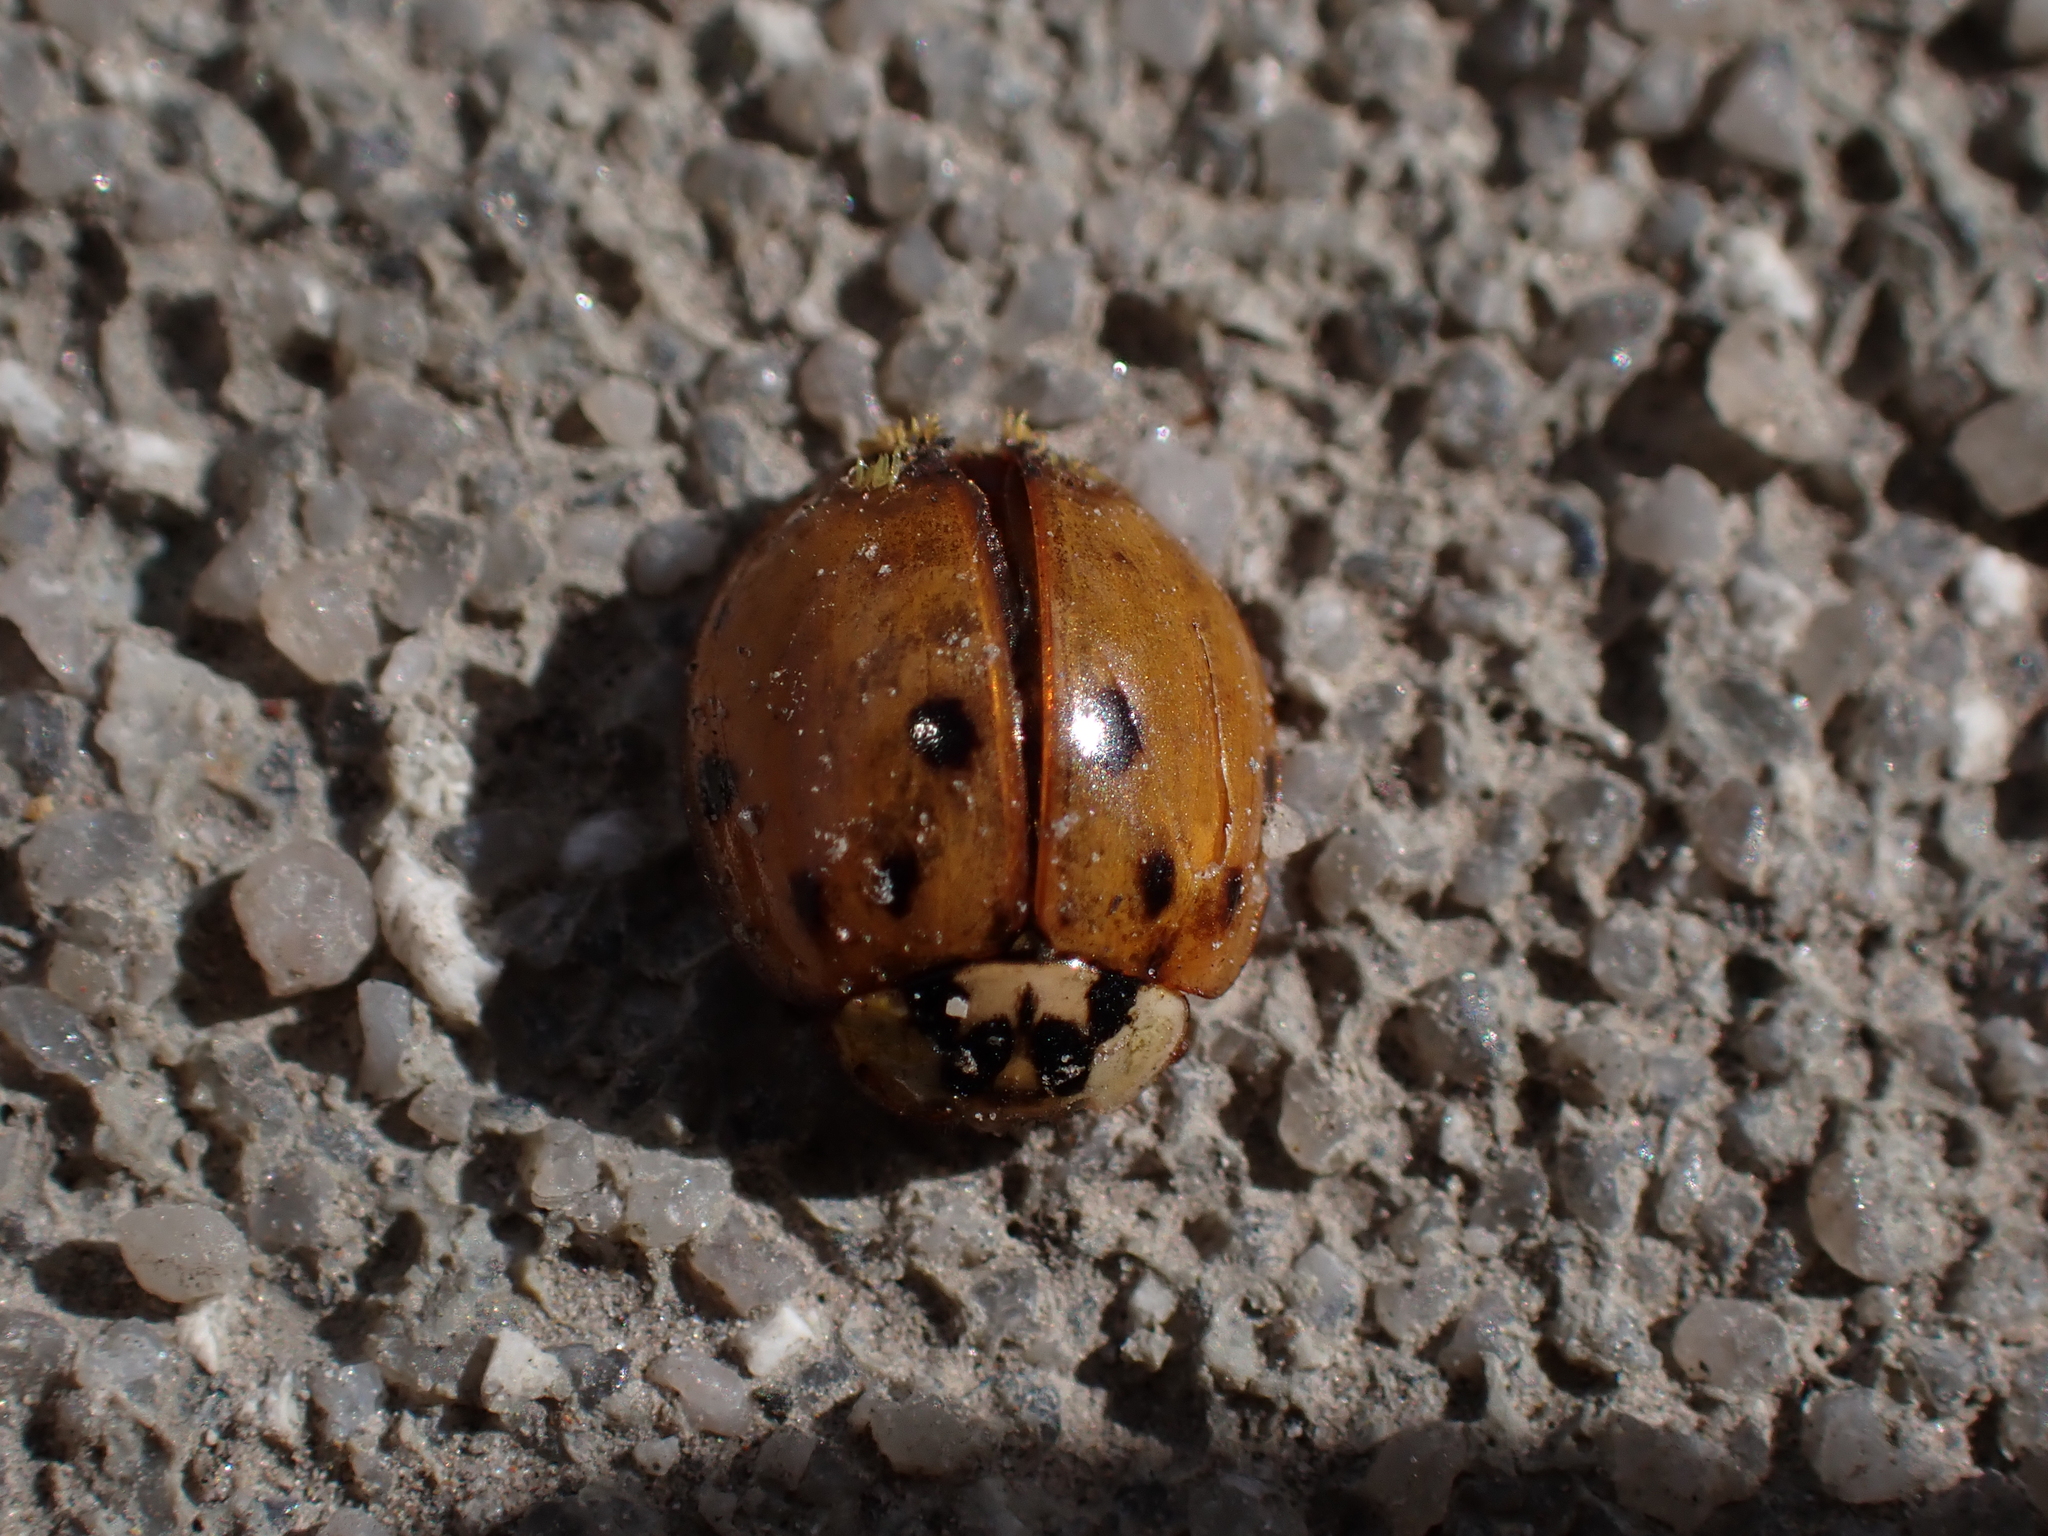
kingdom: Animalia
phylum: Arthropoda
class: Insecta
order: Coleoptera
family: Coccinellidae
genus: Harmonia
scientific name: Harmonia axyridis
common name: Harlequin ladybird
